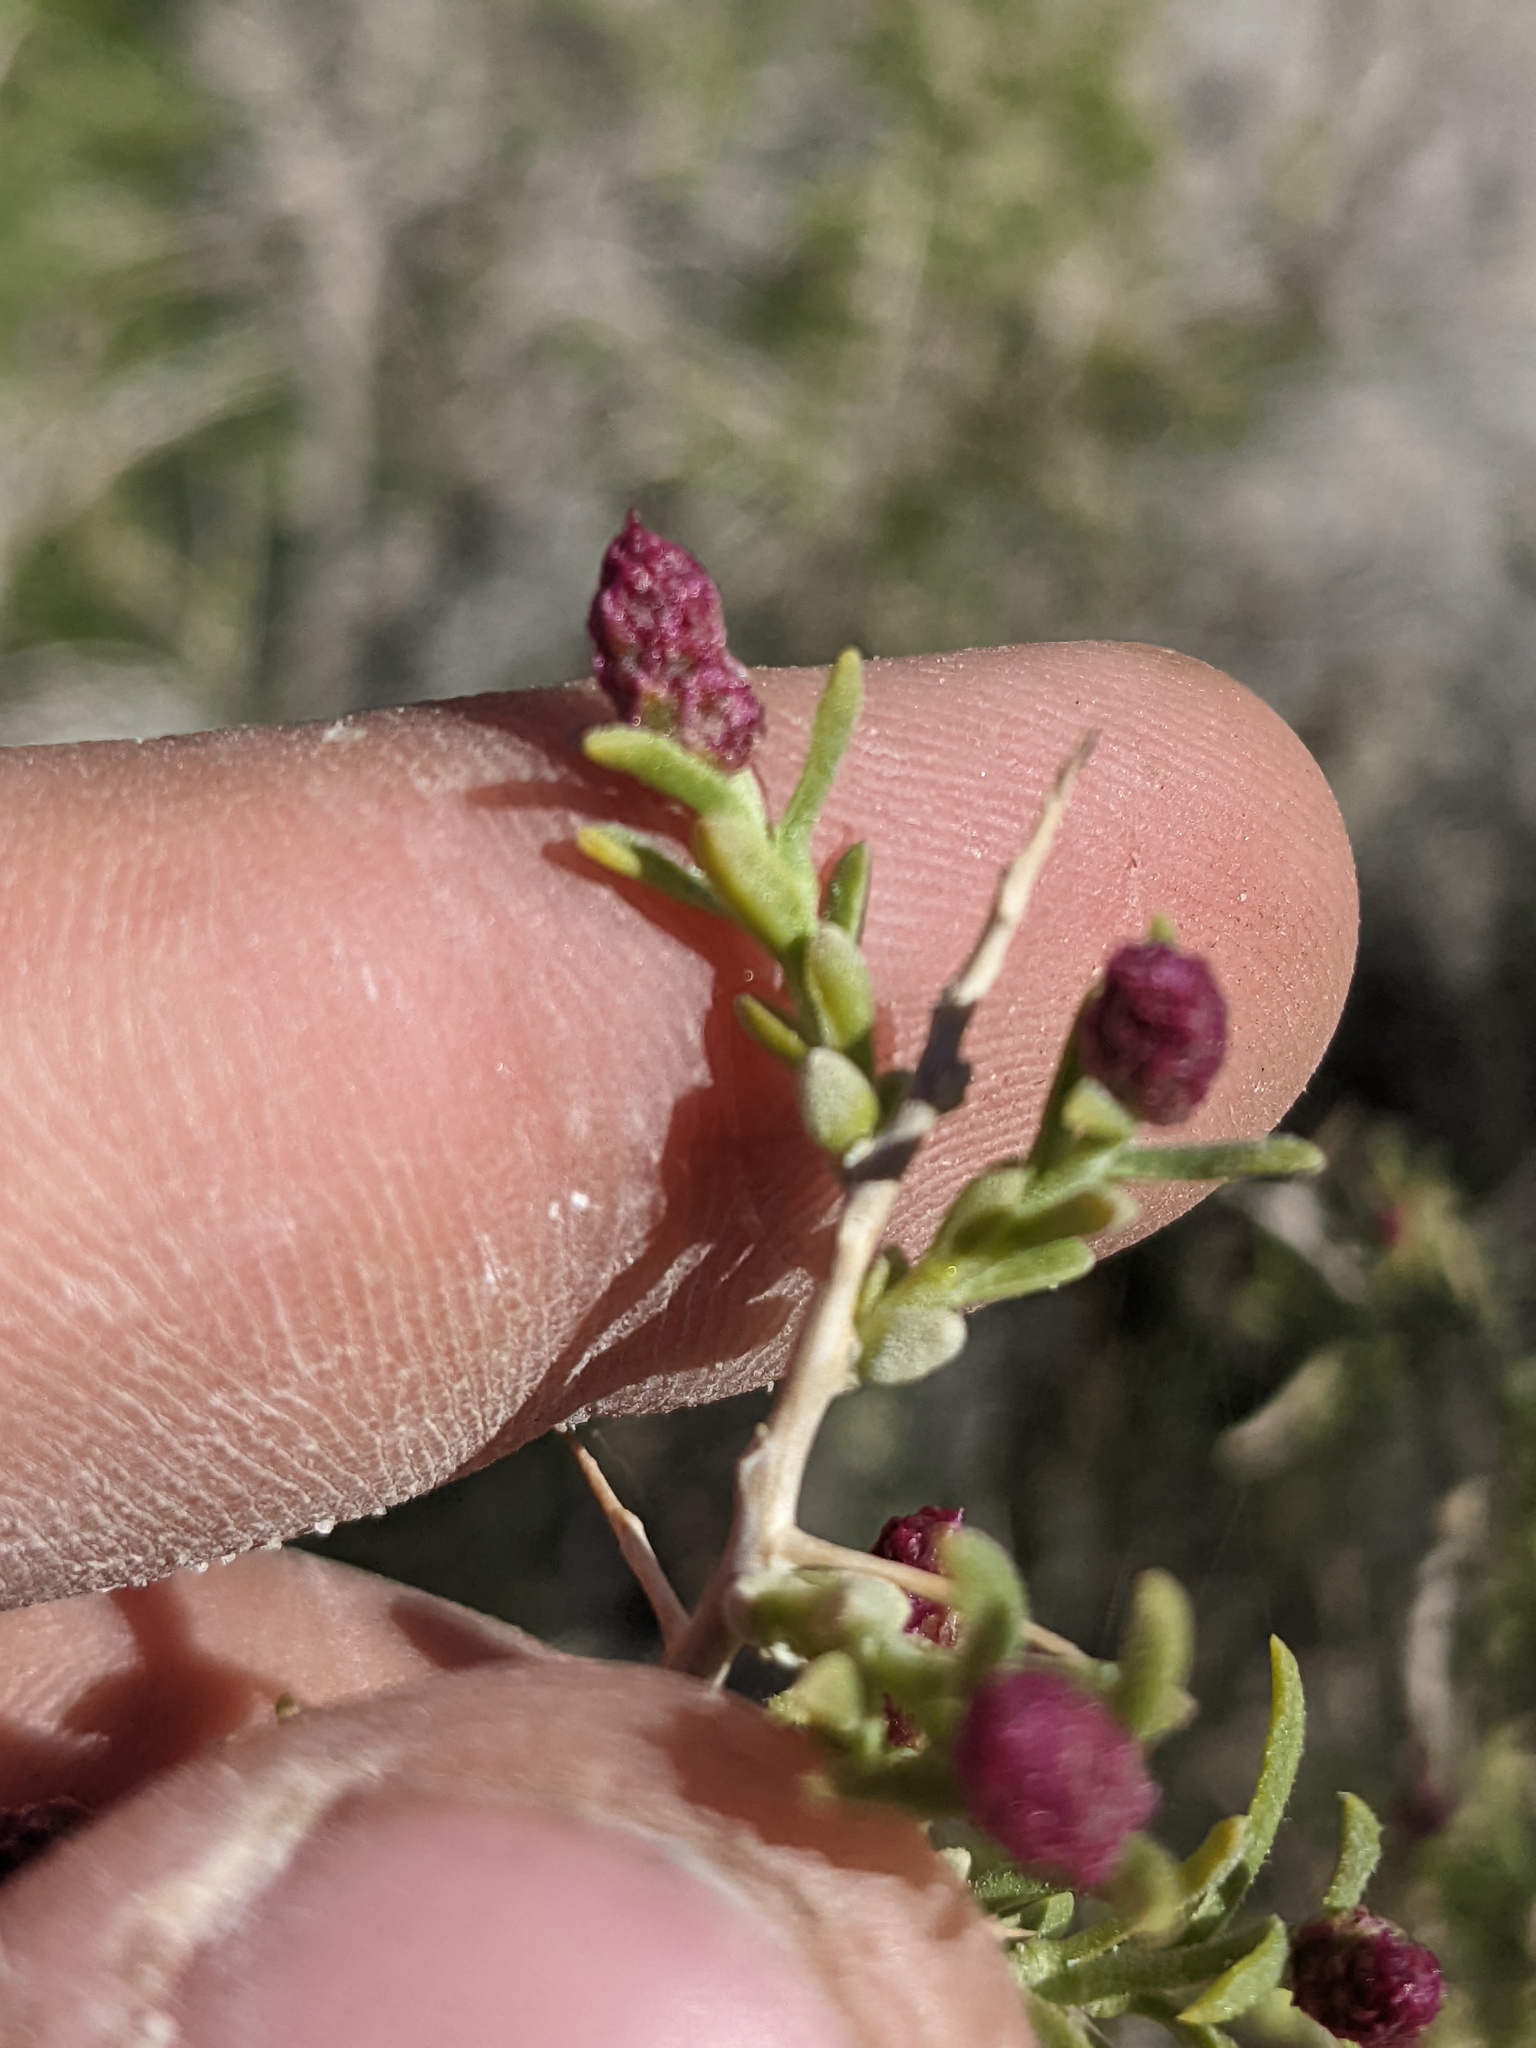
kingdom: Plantae
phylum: Tracheophyta
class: Magnoliopsida
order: Caryophyllales
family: Sarcobataceae
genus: Sarcobatus
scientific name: Sarcobatus vermiculatus
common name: Greasewood
